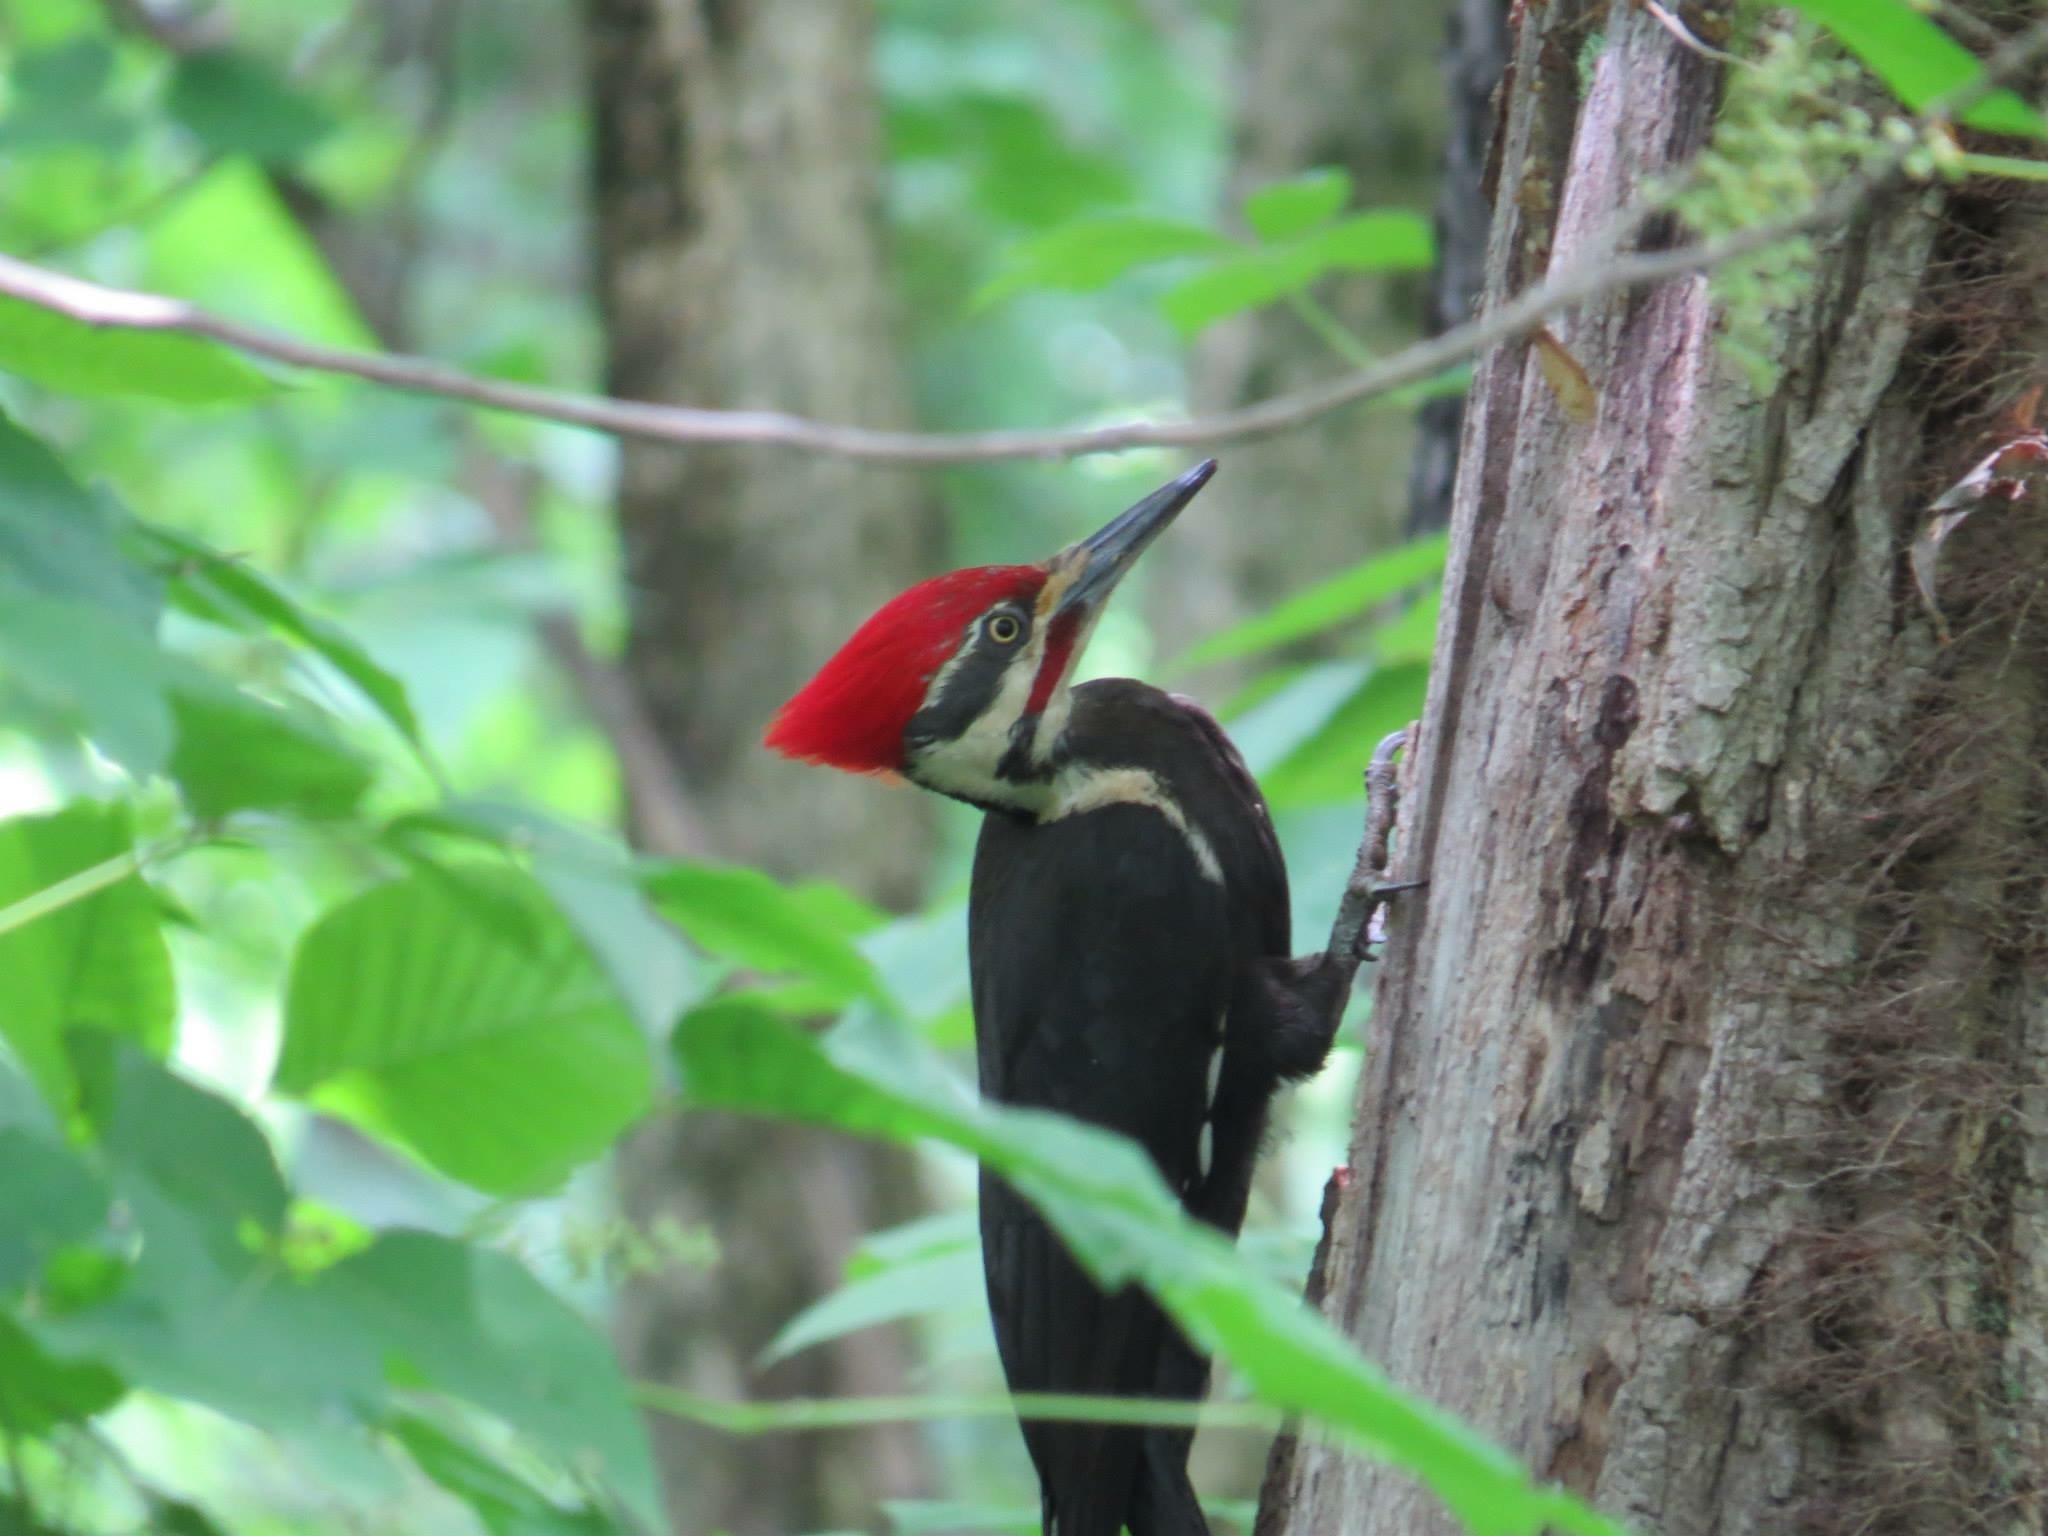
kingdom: Animalia
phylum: Chordata
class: Aves
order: Piciformes
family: Picidae
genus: Dryocopus
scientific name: Dryocopus pileatus
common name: Pileated woodpecker
